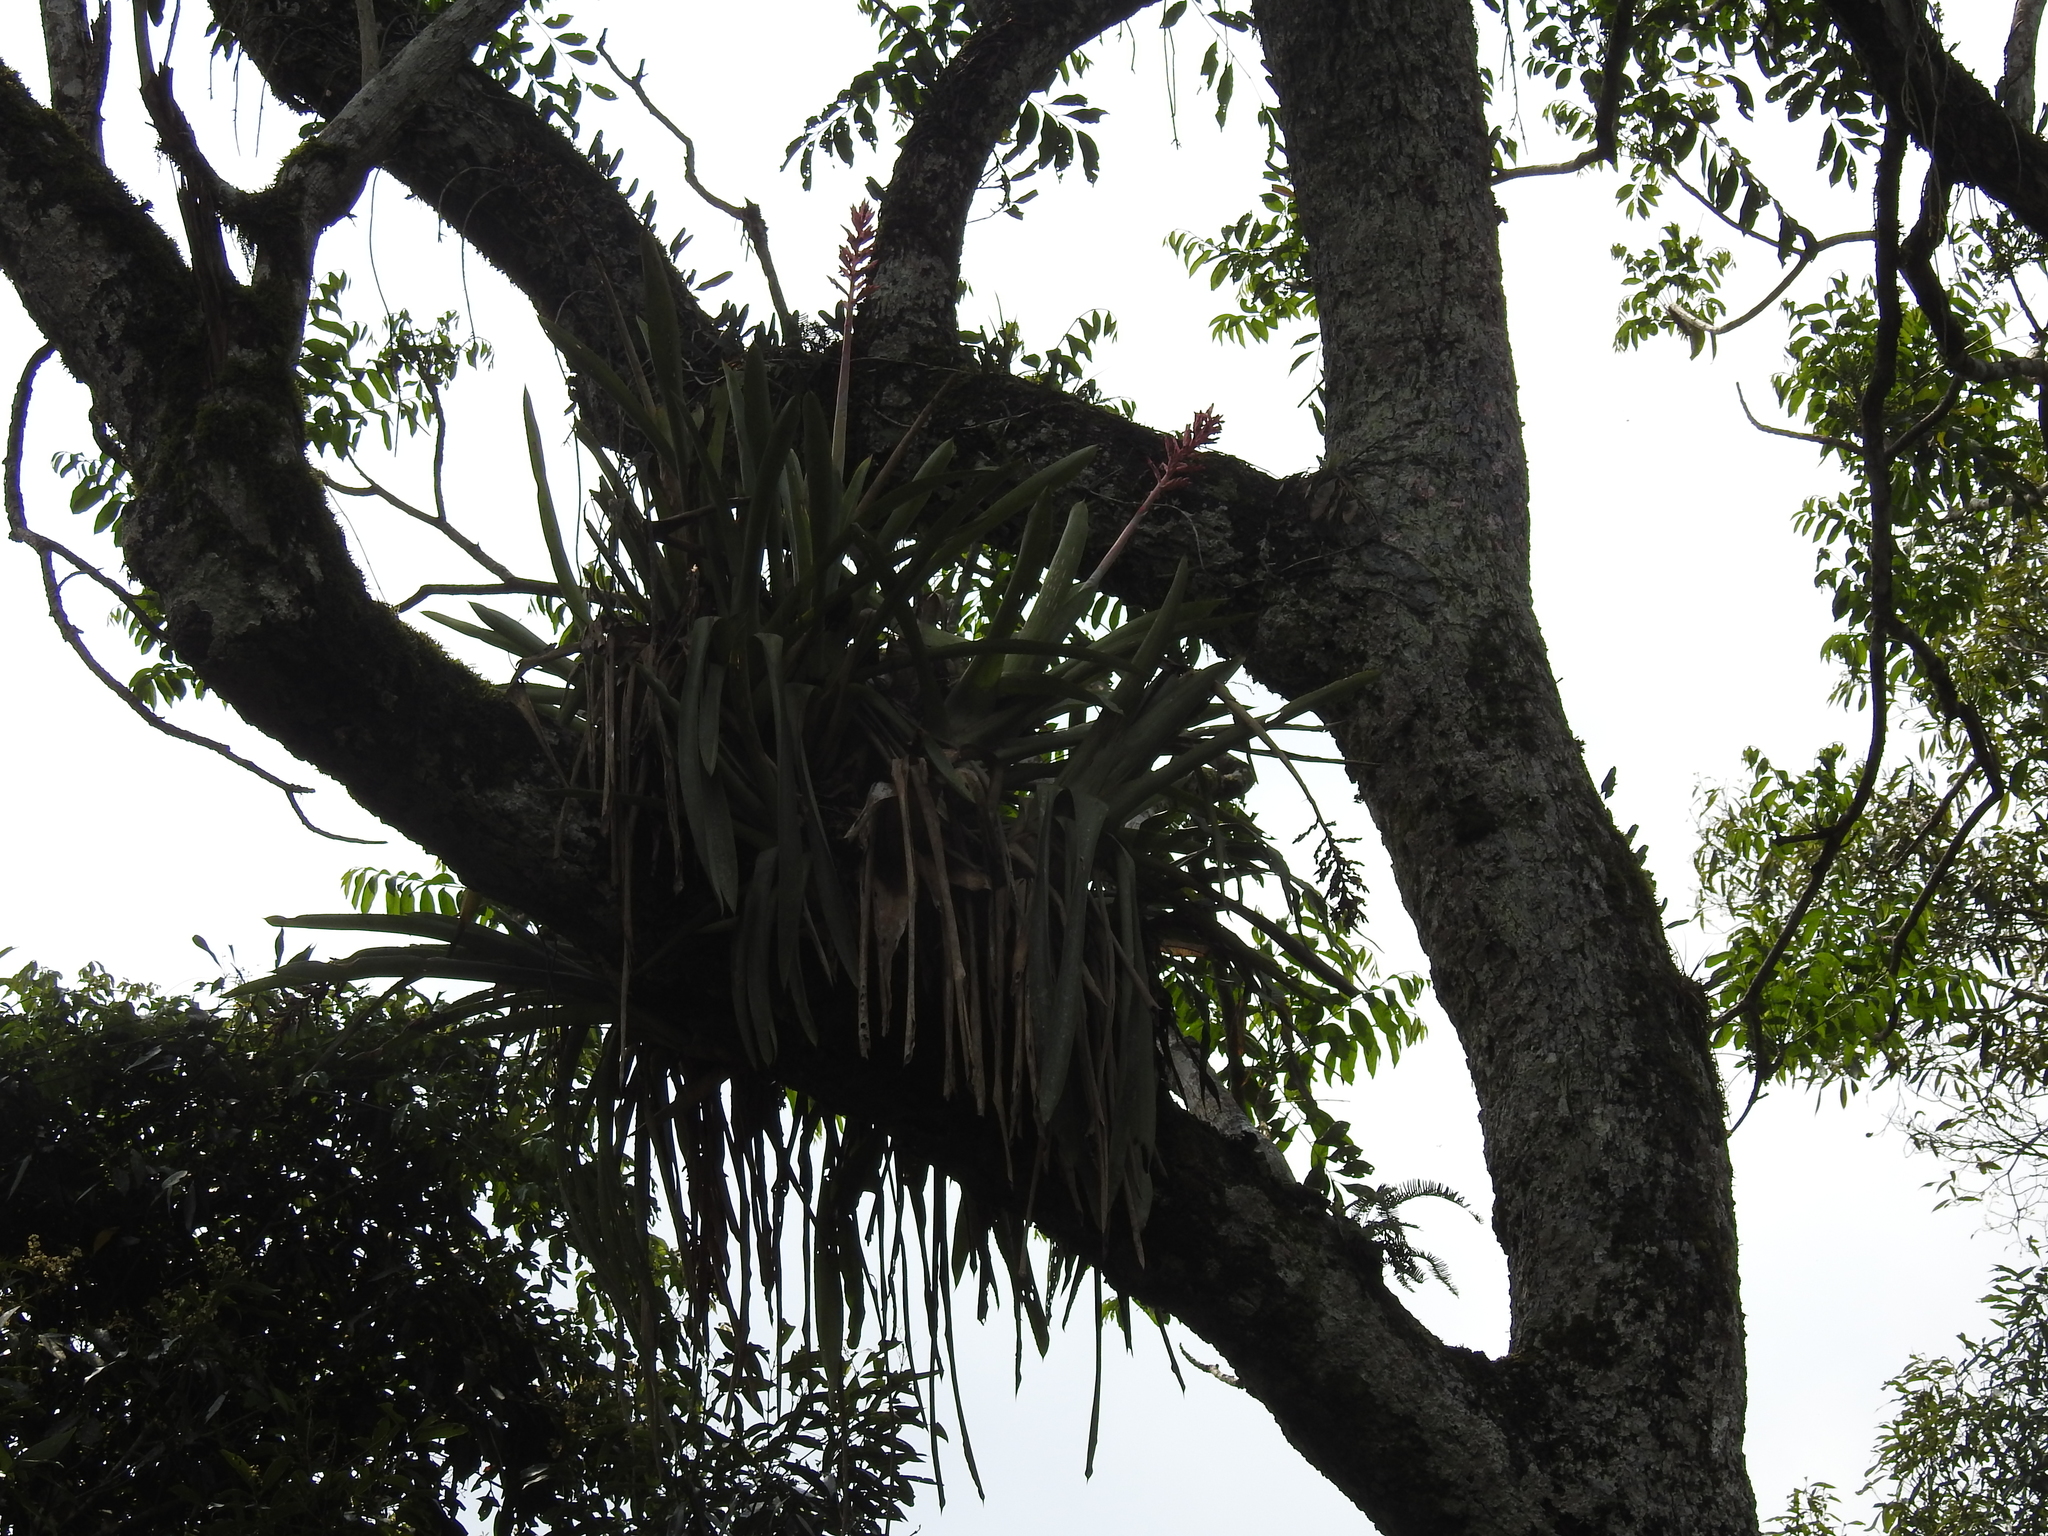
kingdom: Plantae
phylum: Tracheophyta
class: Liliopsida
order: Poales
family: Bromeliaceae
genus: Aechmea
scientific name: Aechmea distichantha
